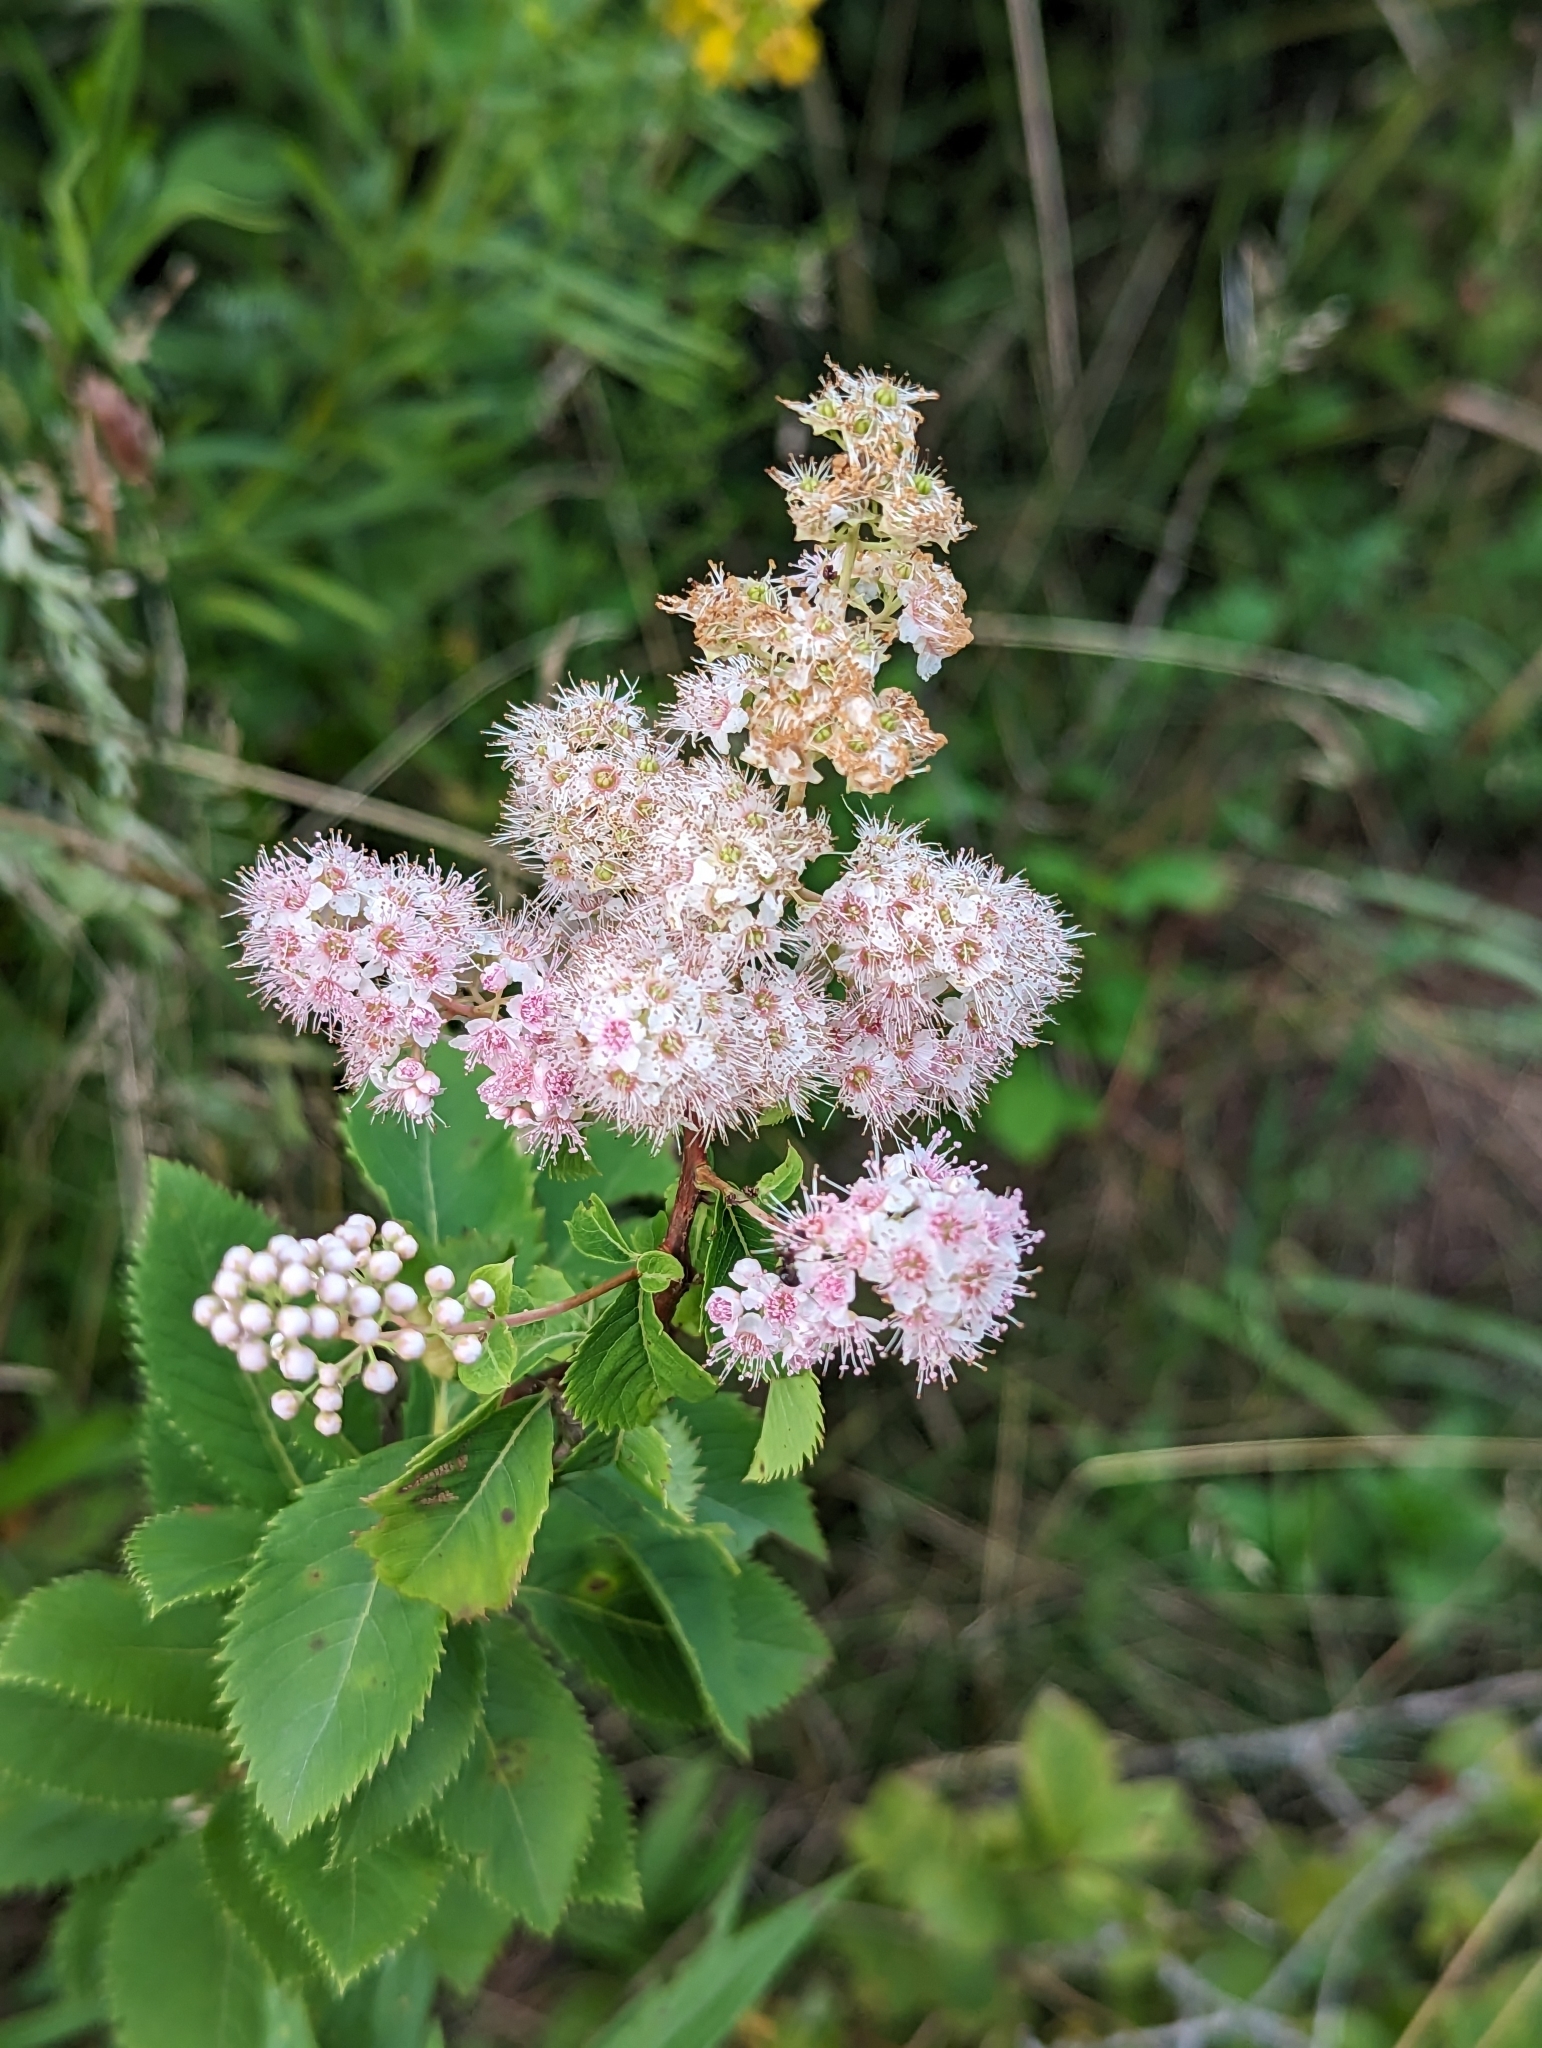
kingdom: Plantae
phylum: Tracheophyta
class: Magnoliopsida
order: Rosales
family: Rosaceae
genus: Spiraea
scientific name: Spiraea alba
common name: Pale bridewort
